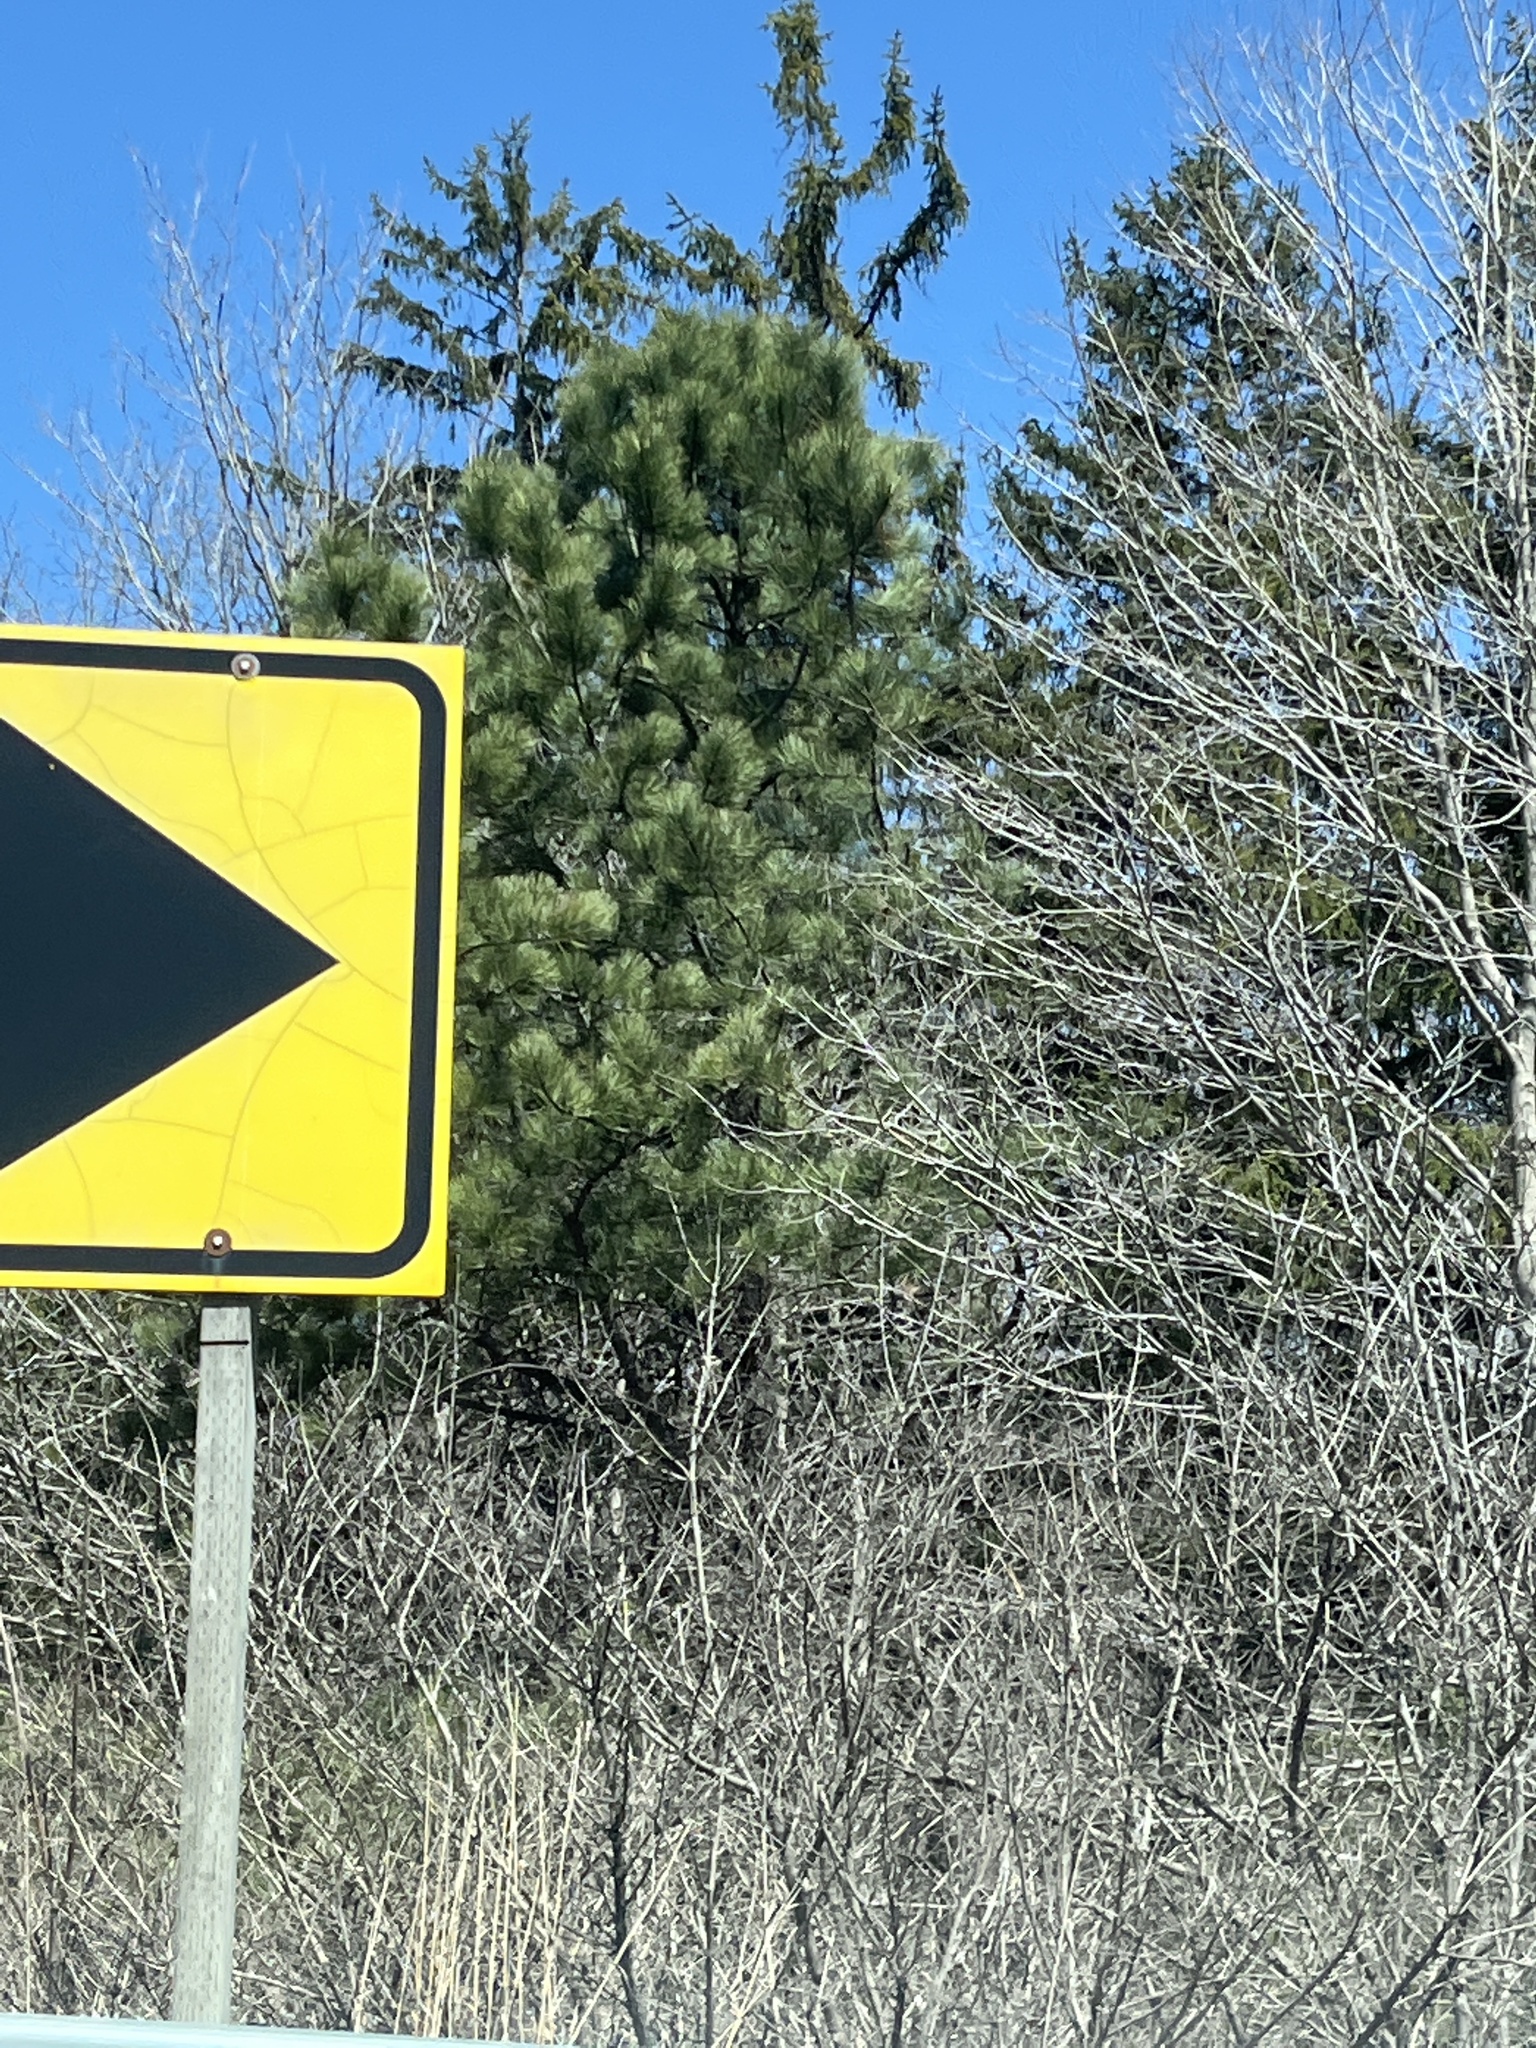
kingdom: Plantae
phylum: Tracheophyta
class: Pinopsida
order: Pinales
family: Pinaceae
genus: Pinus
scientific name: Pinus
